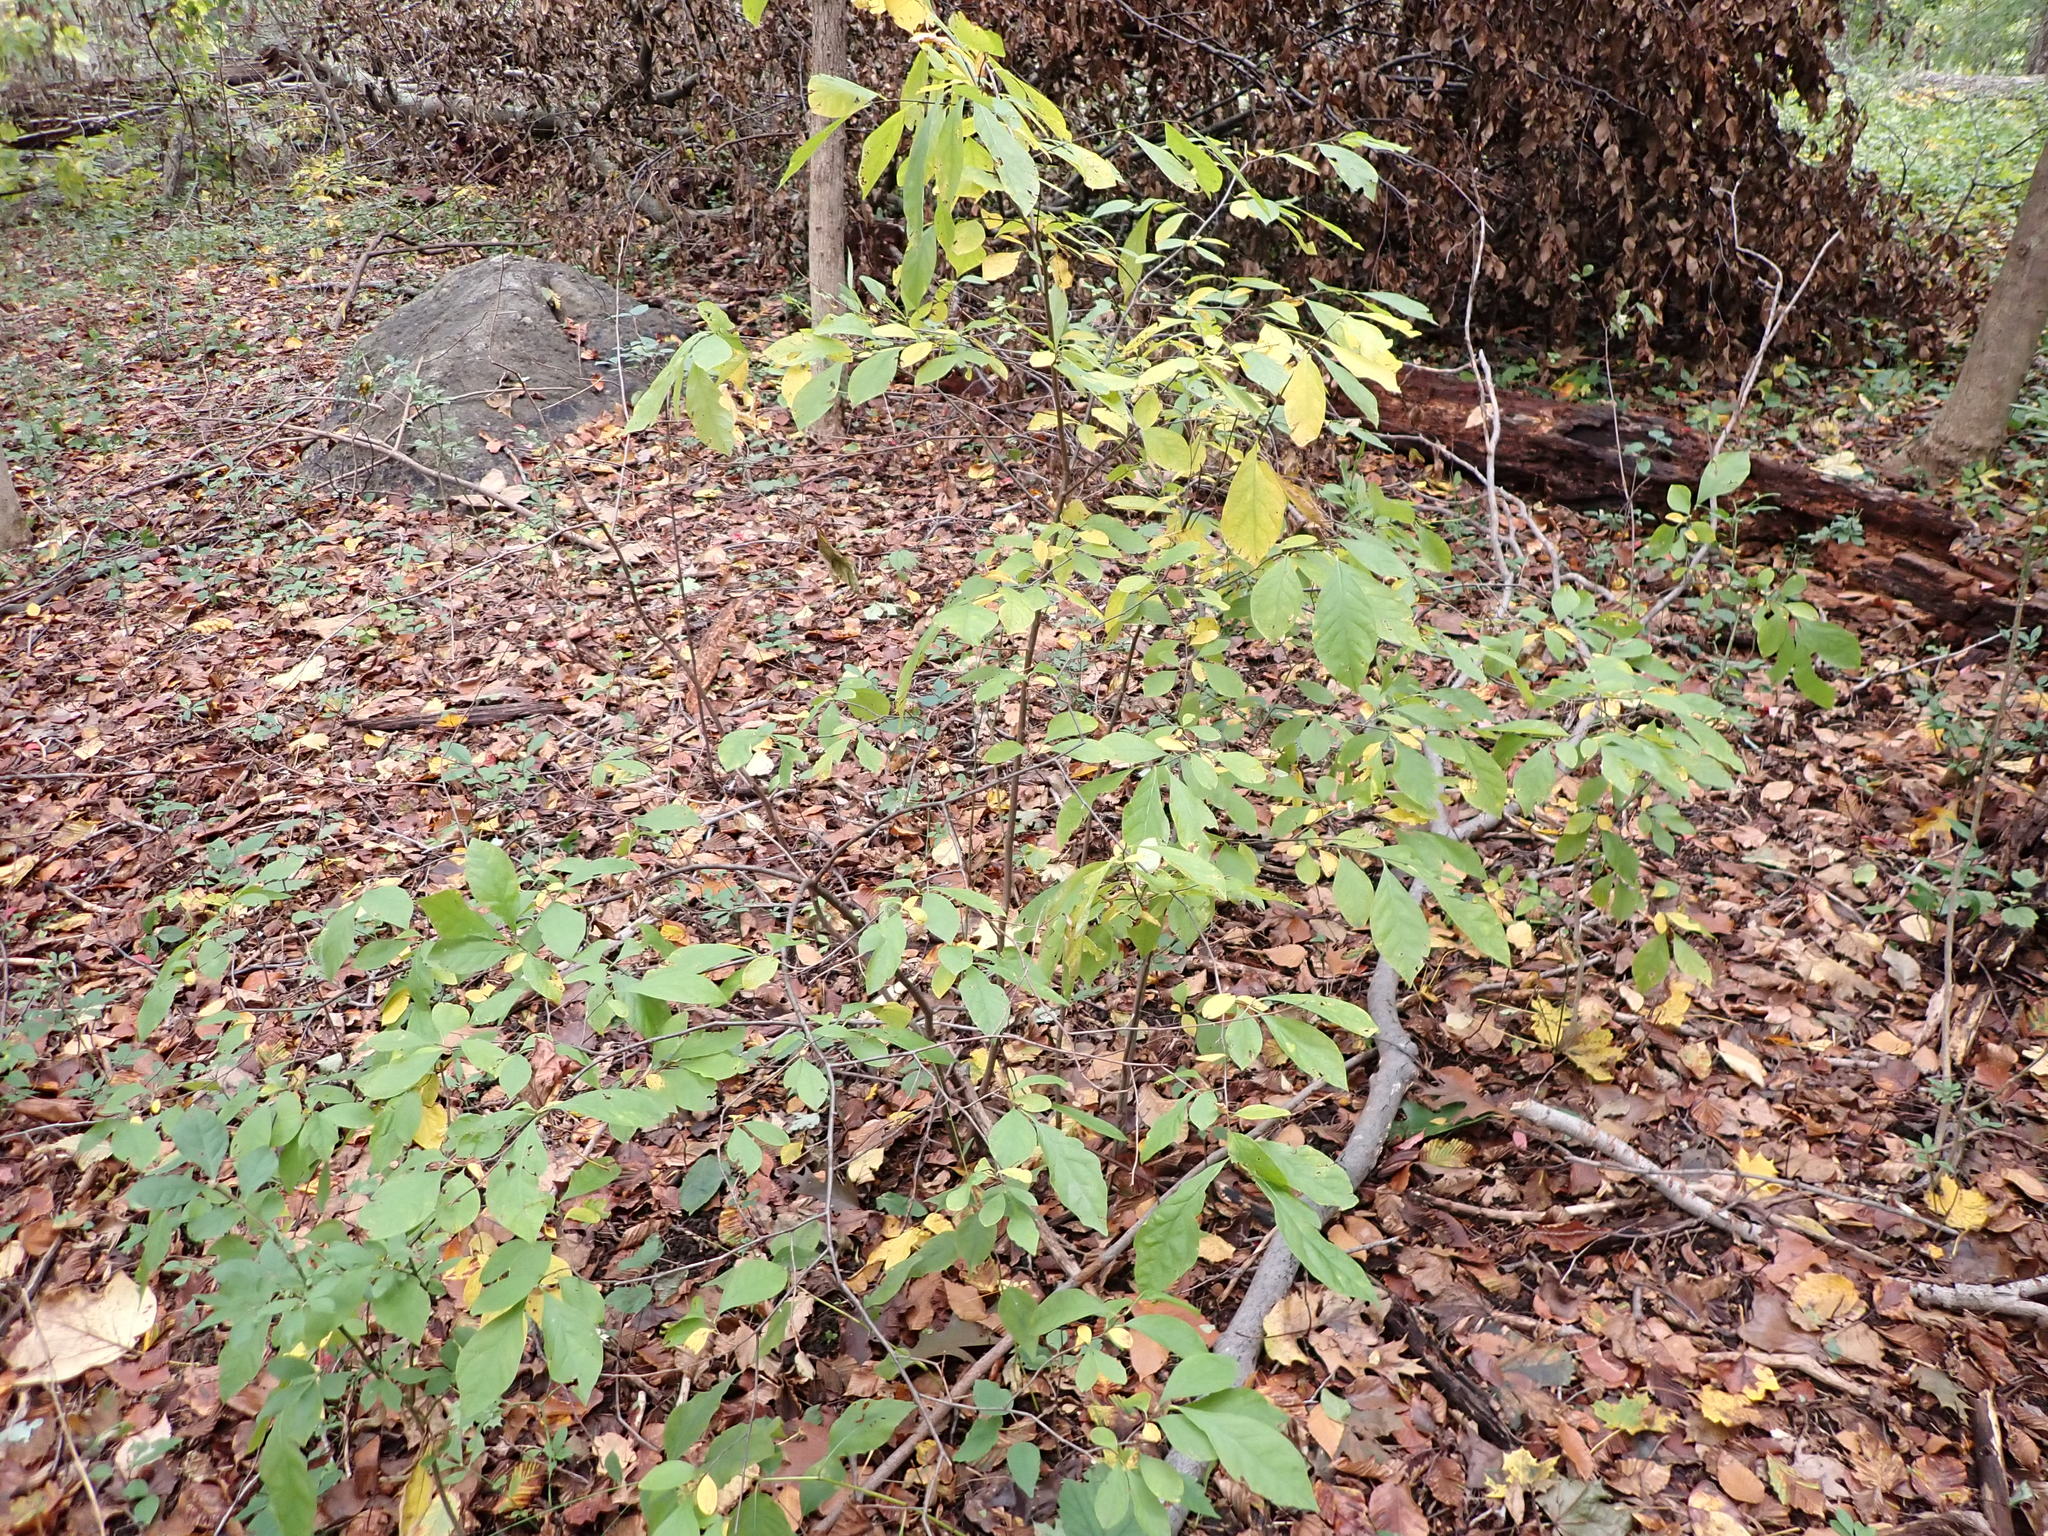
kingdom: Plantae
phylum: Tracheophyta
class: Magnoliopsida
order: Laurales
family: Lauraceae
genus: Lindera
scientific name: Lindera benzoin
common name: Spicebush
